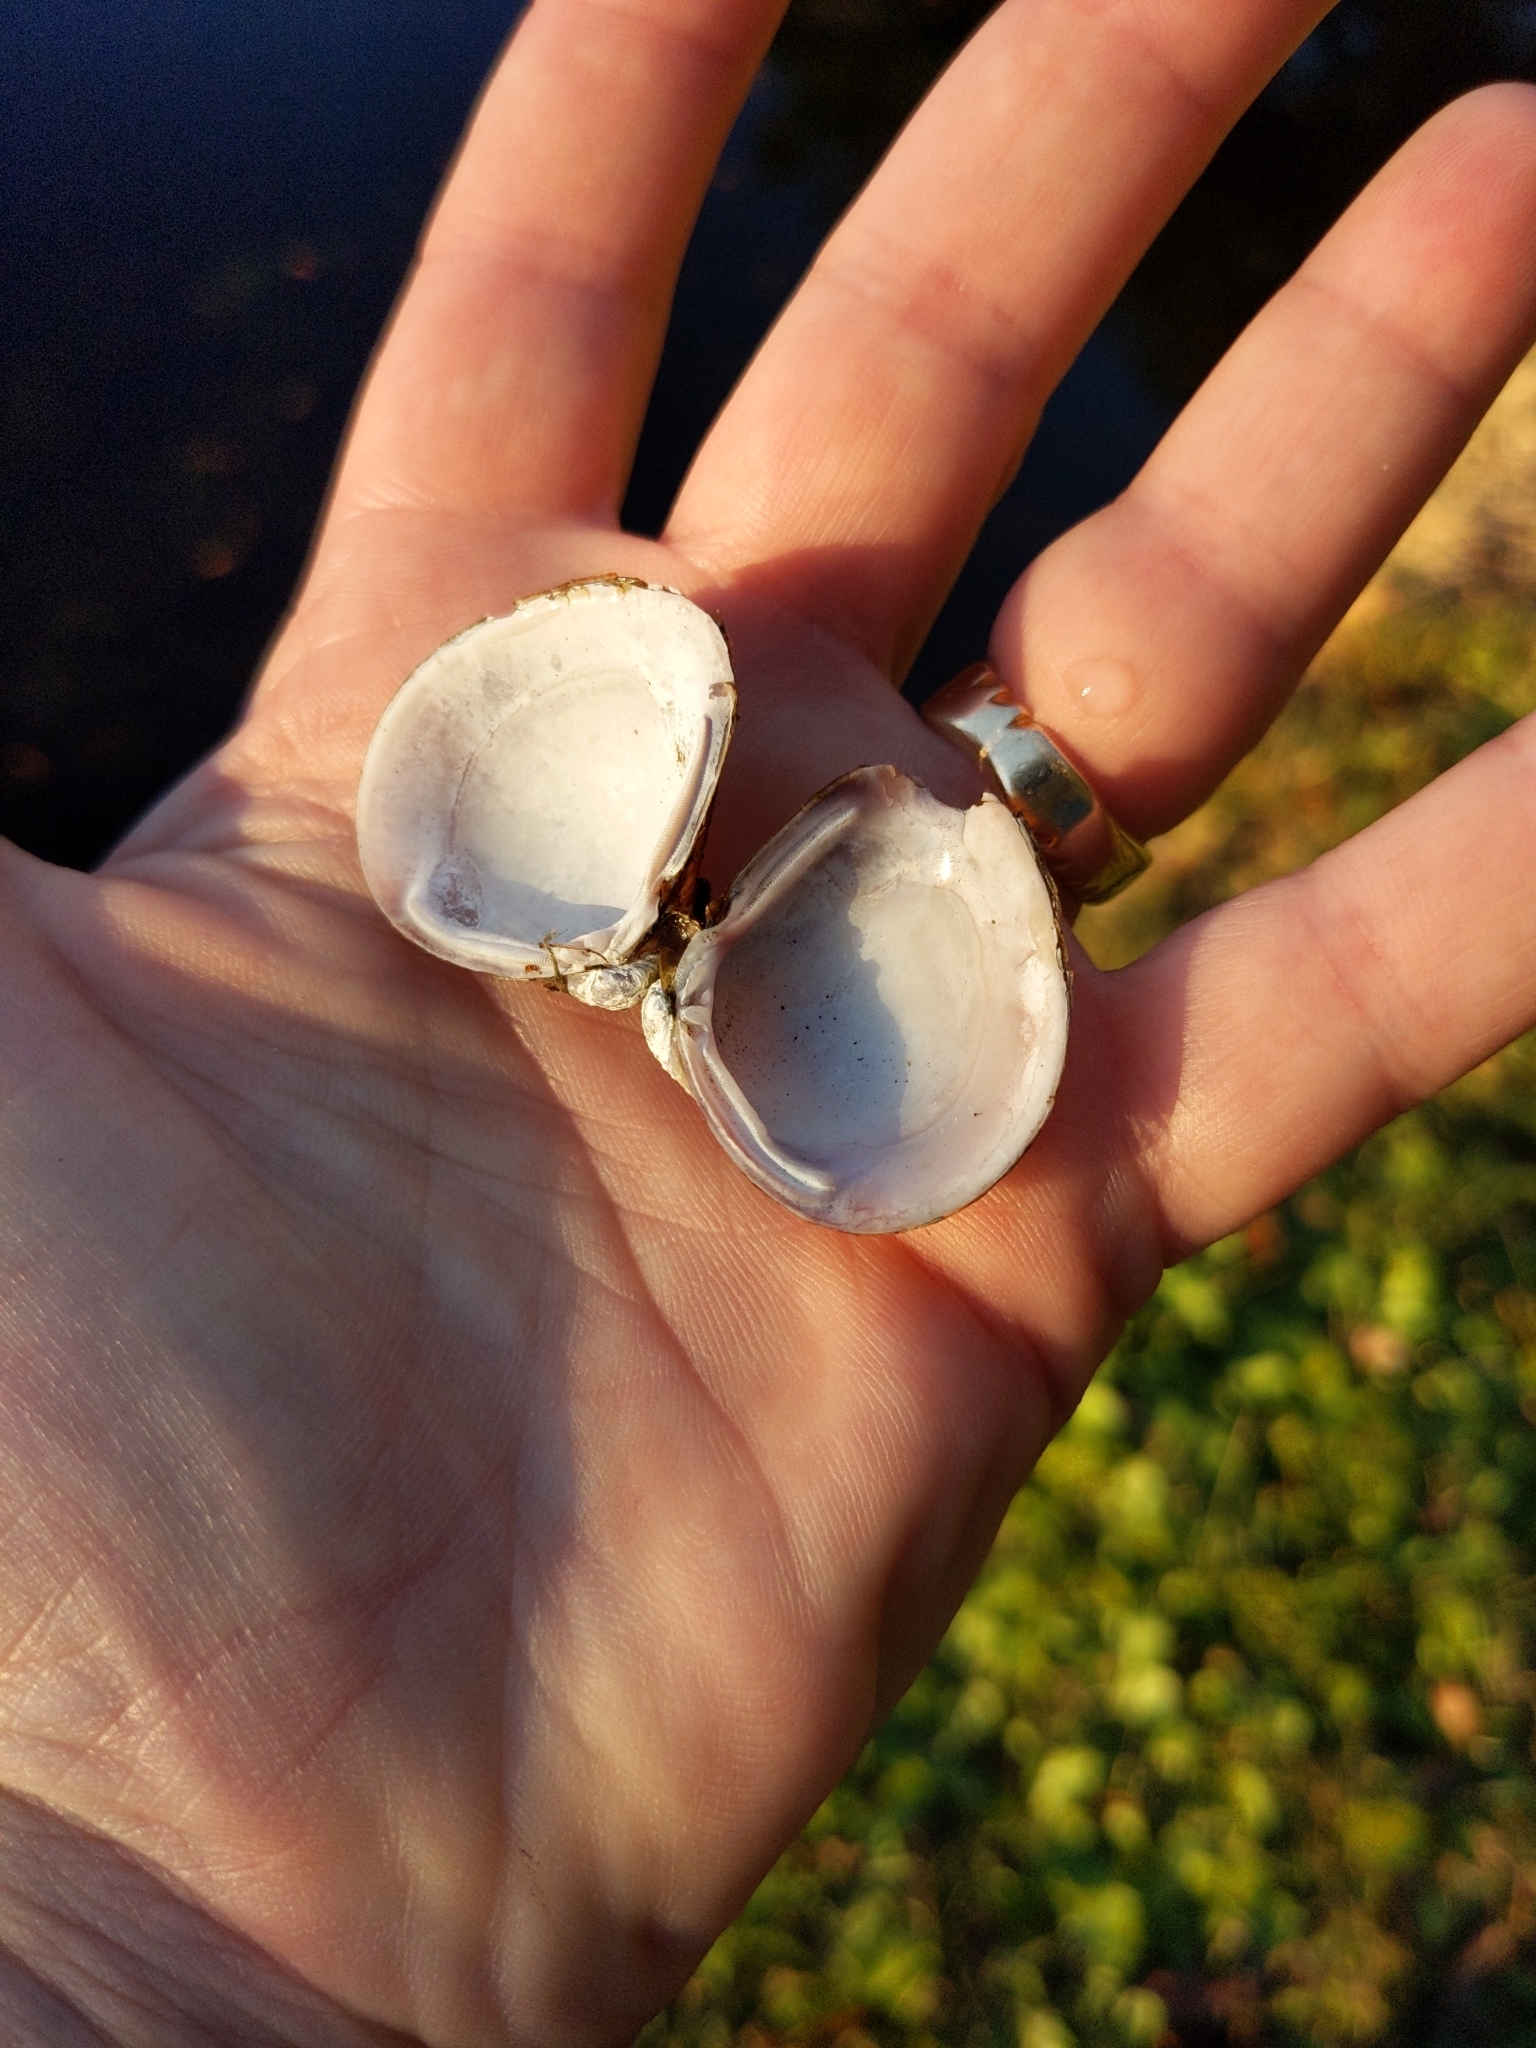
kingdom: Animalia
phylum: Mollusca
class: Bivalvia
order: Venerida
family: Cyrenidae
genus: Corbicula
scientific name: Corbicula fluminea
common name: Asian clam
